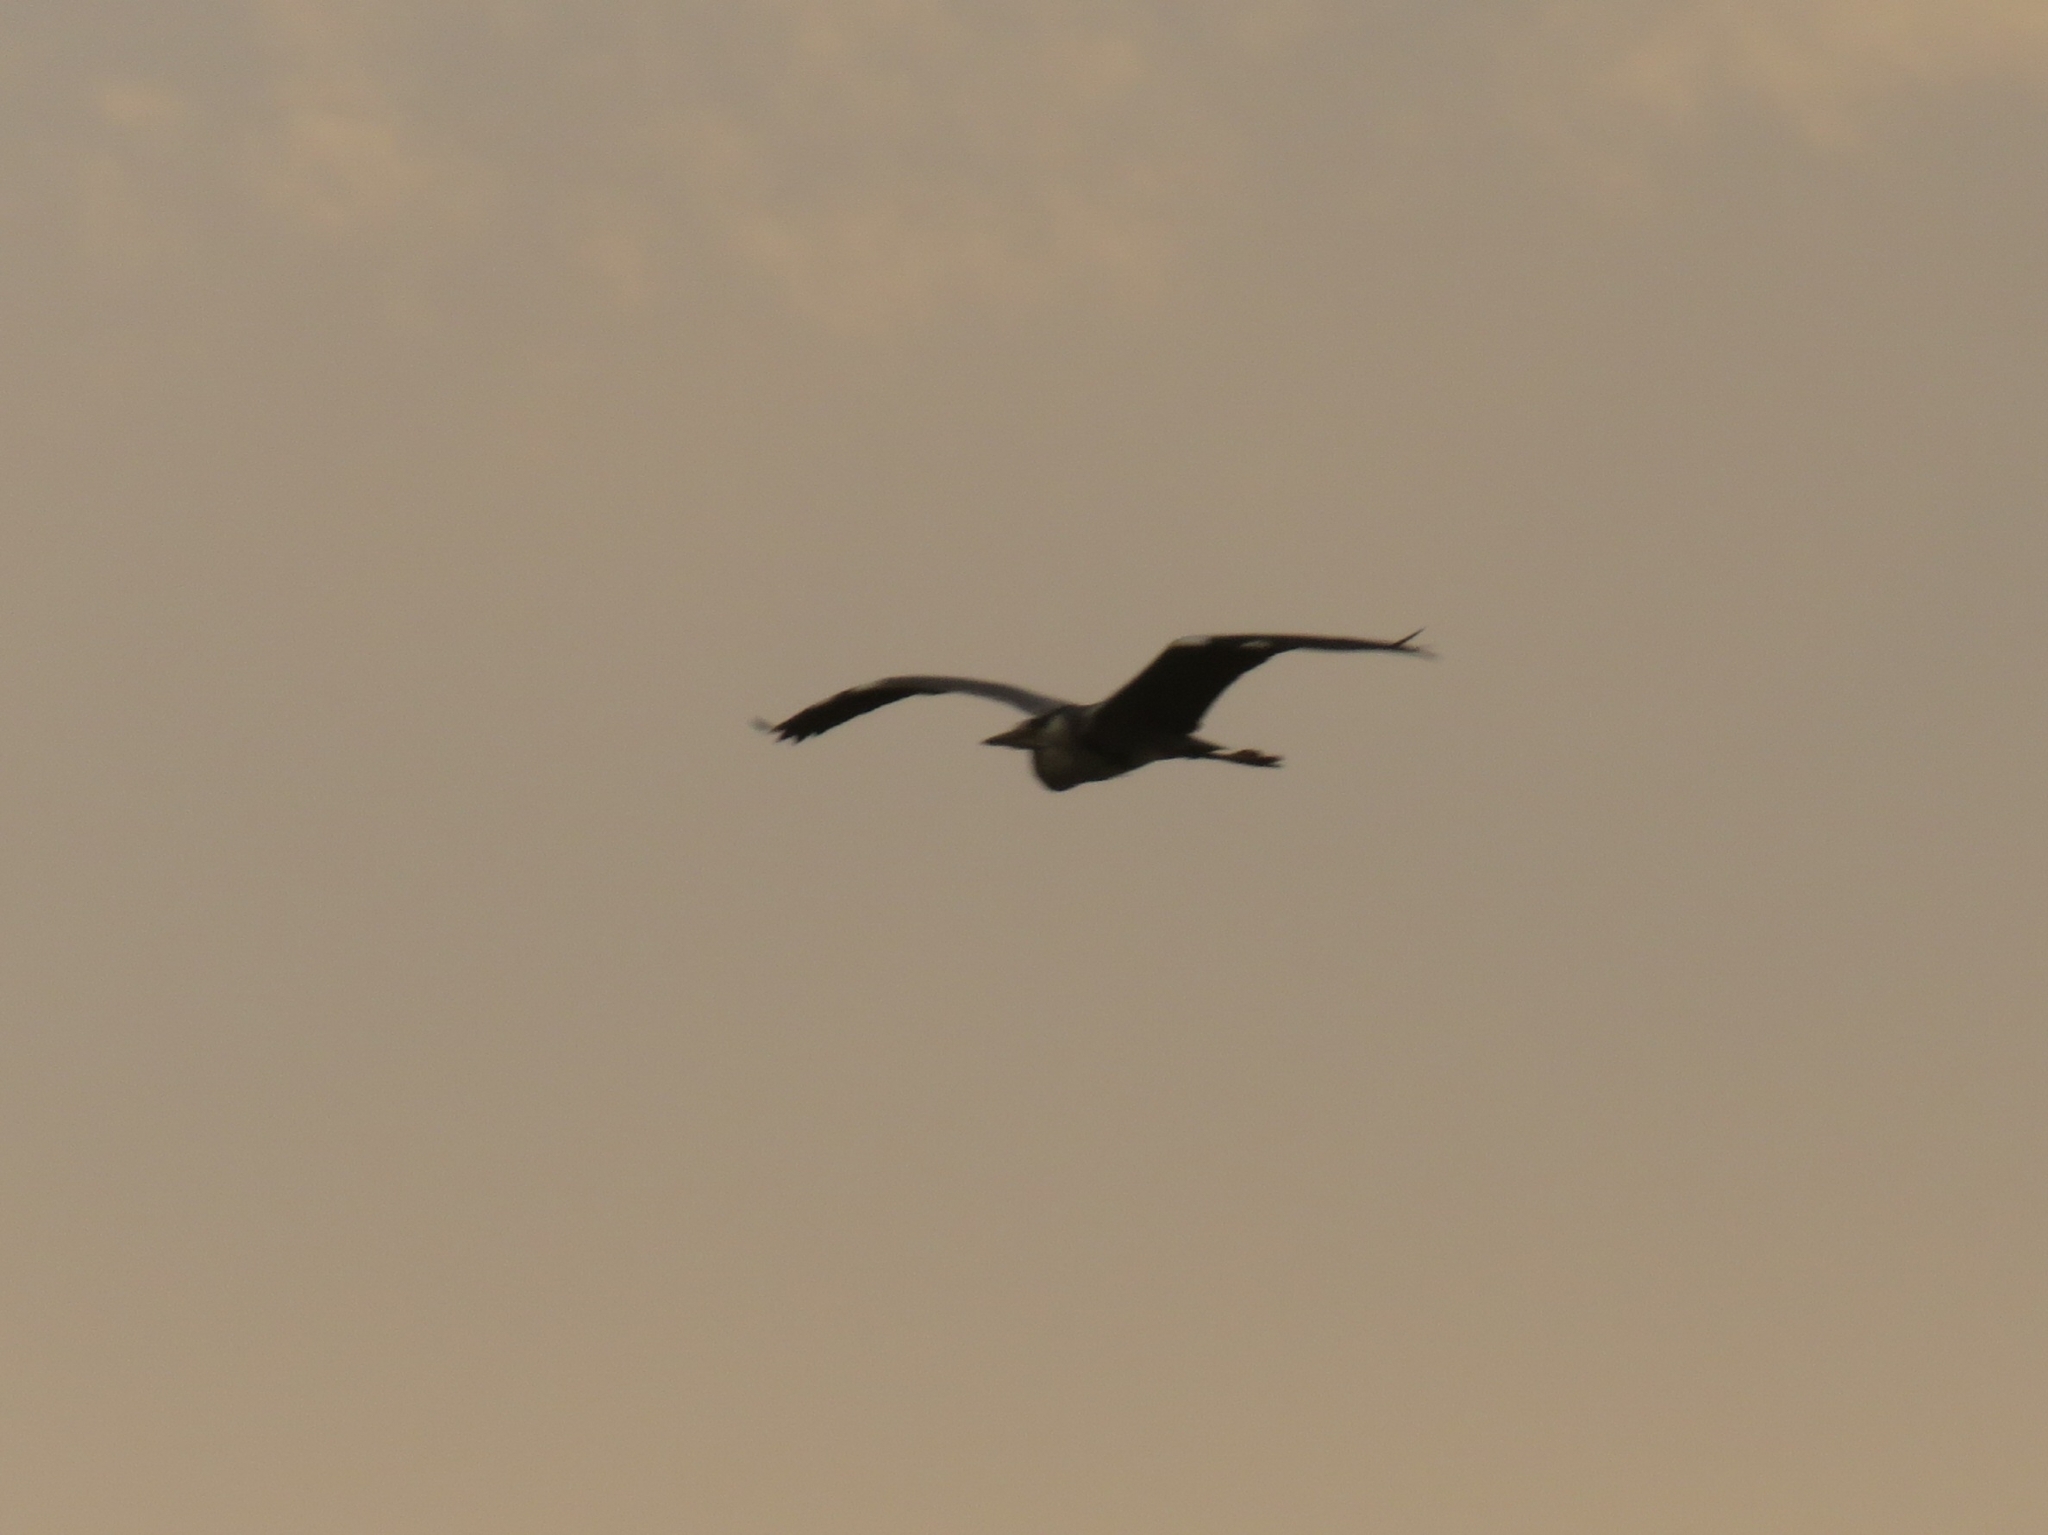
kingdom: Animalia
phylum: Chordata
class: Aves
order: Pelecaniformes
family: Ardeidae
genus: Ardea
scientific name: Ardea cinerea
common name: Grey heron
